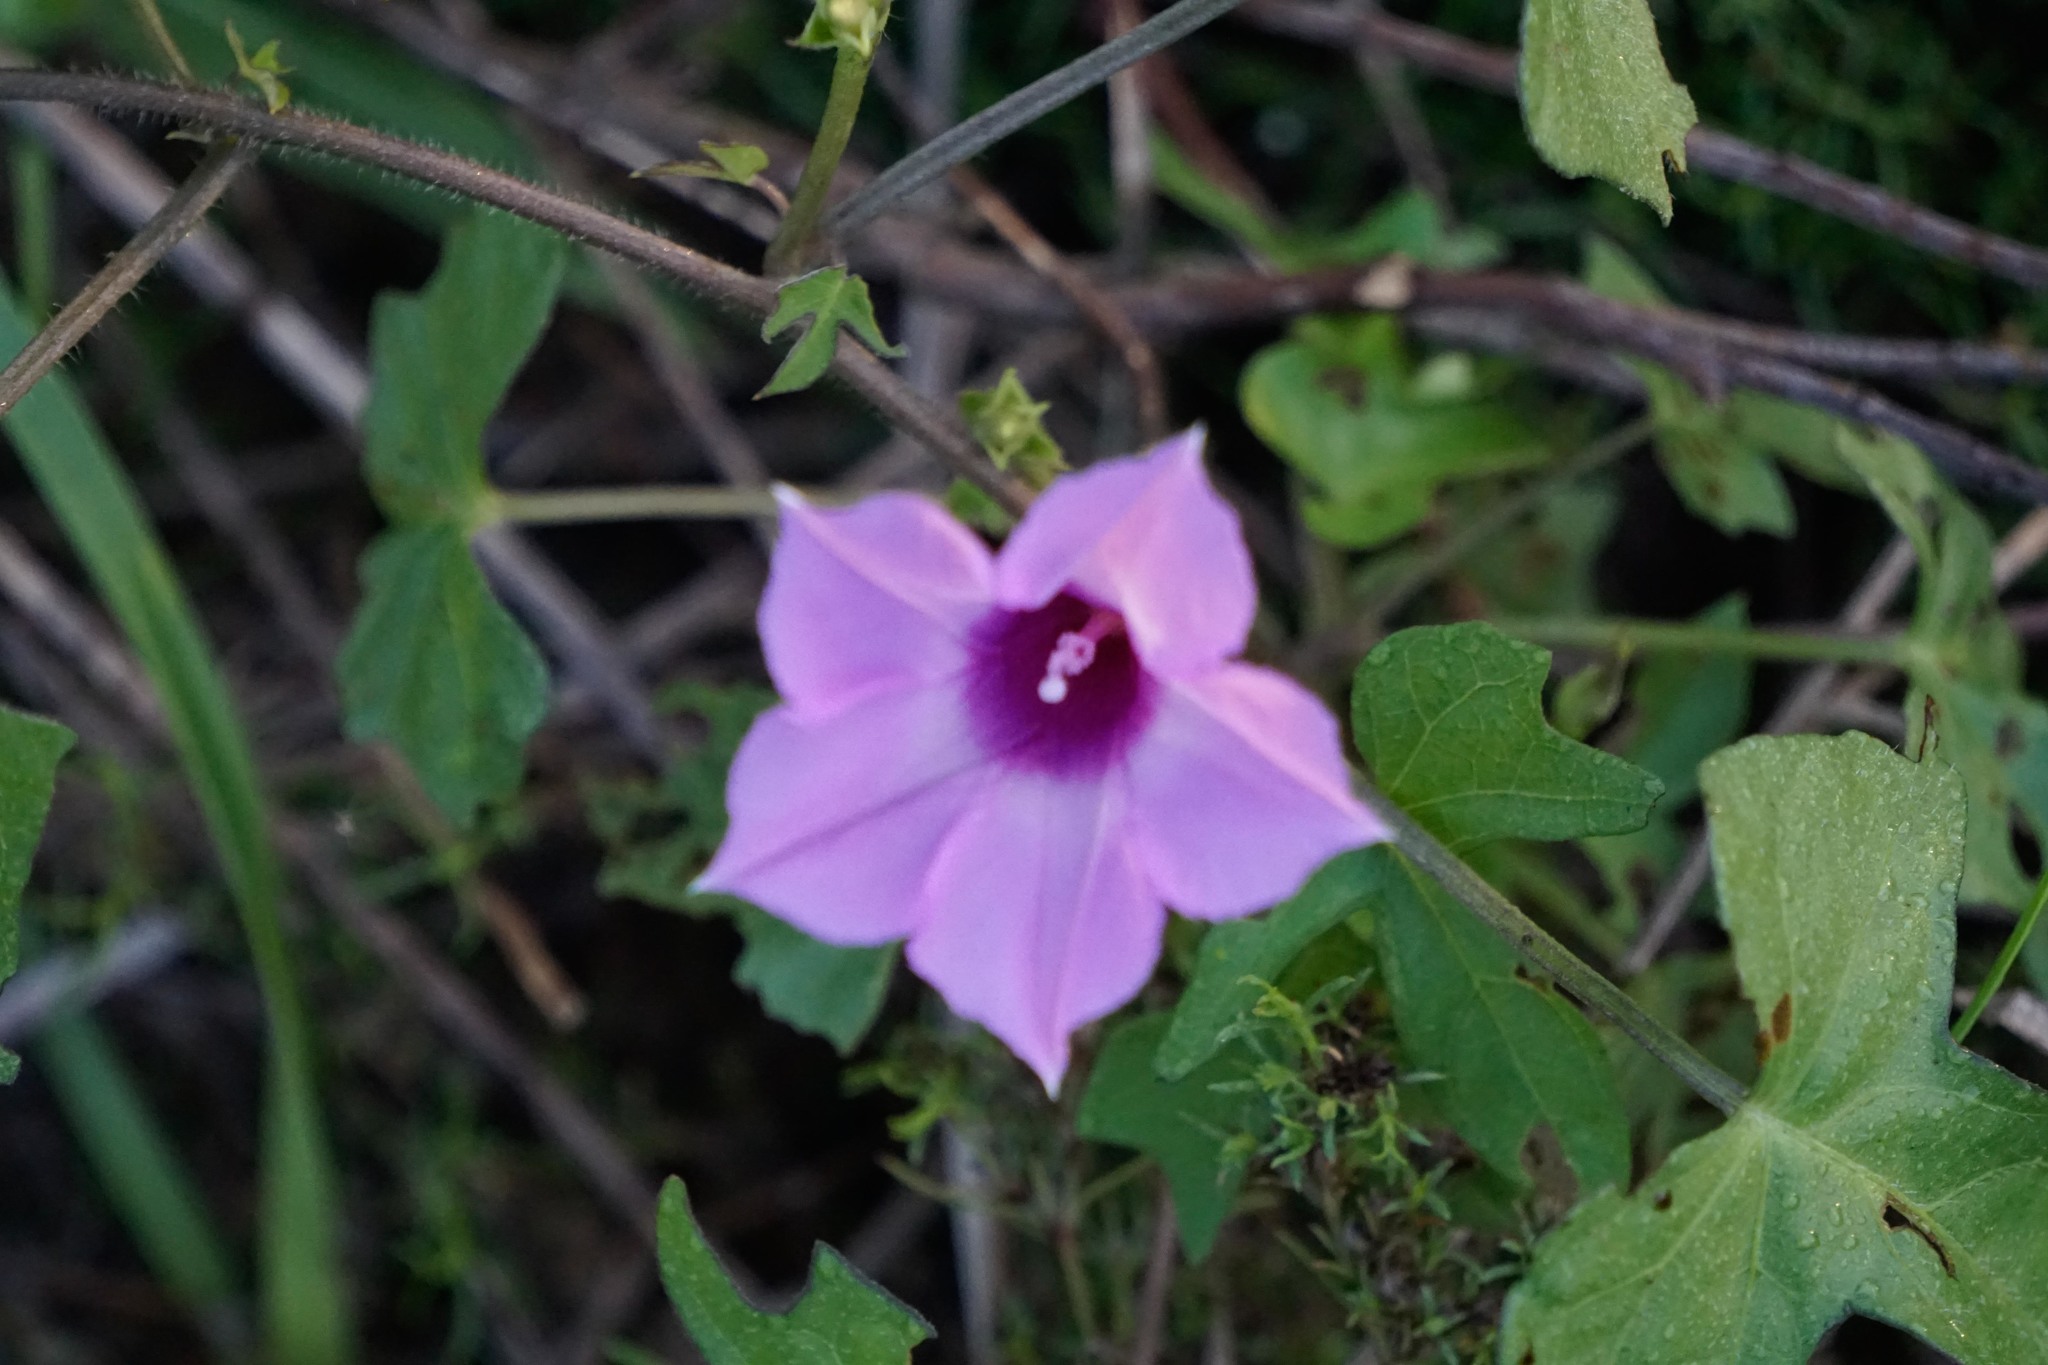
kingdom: Plantae
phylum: Tracheophyta
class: Magnoliopsida
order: Solanales
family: Convolvulaceae
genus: Ipomoea
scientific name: Ipomoea cordatotriloba
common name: Cotton morning glory
